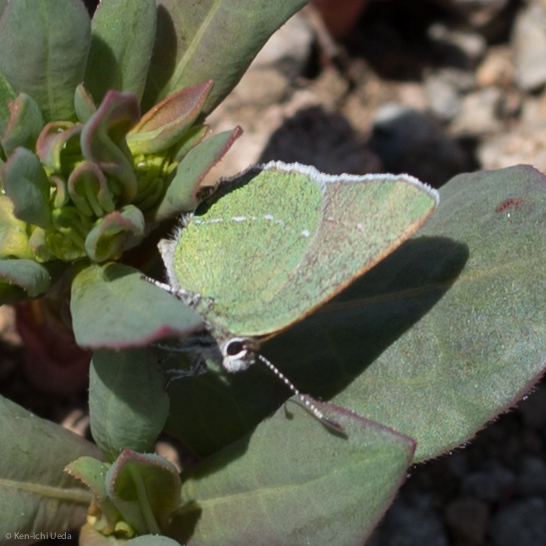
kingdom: Animalia
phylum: Arthropoda
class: Insecta
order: Lepidoptera
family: Lycaenidae
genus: Thecla
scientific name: Thecla sheridanii
